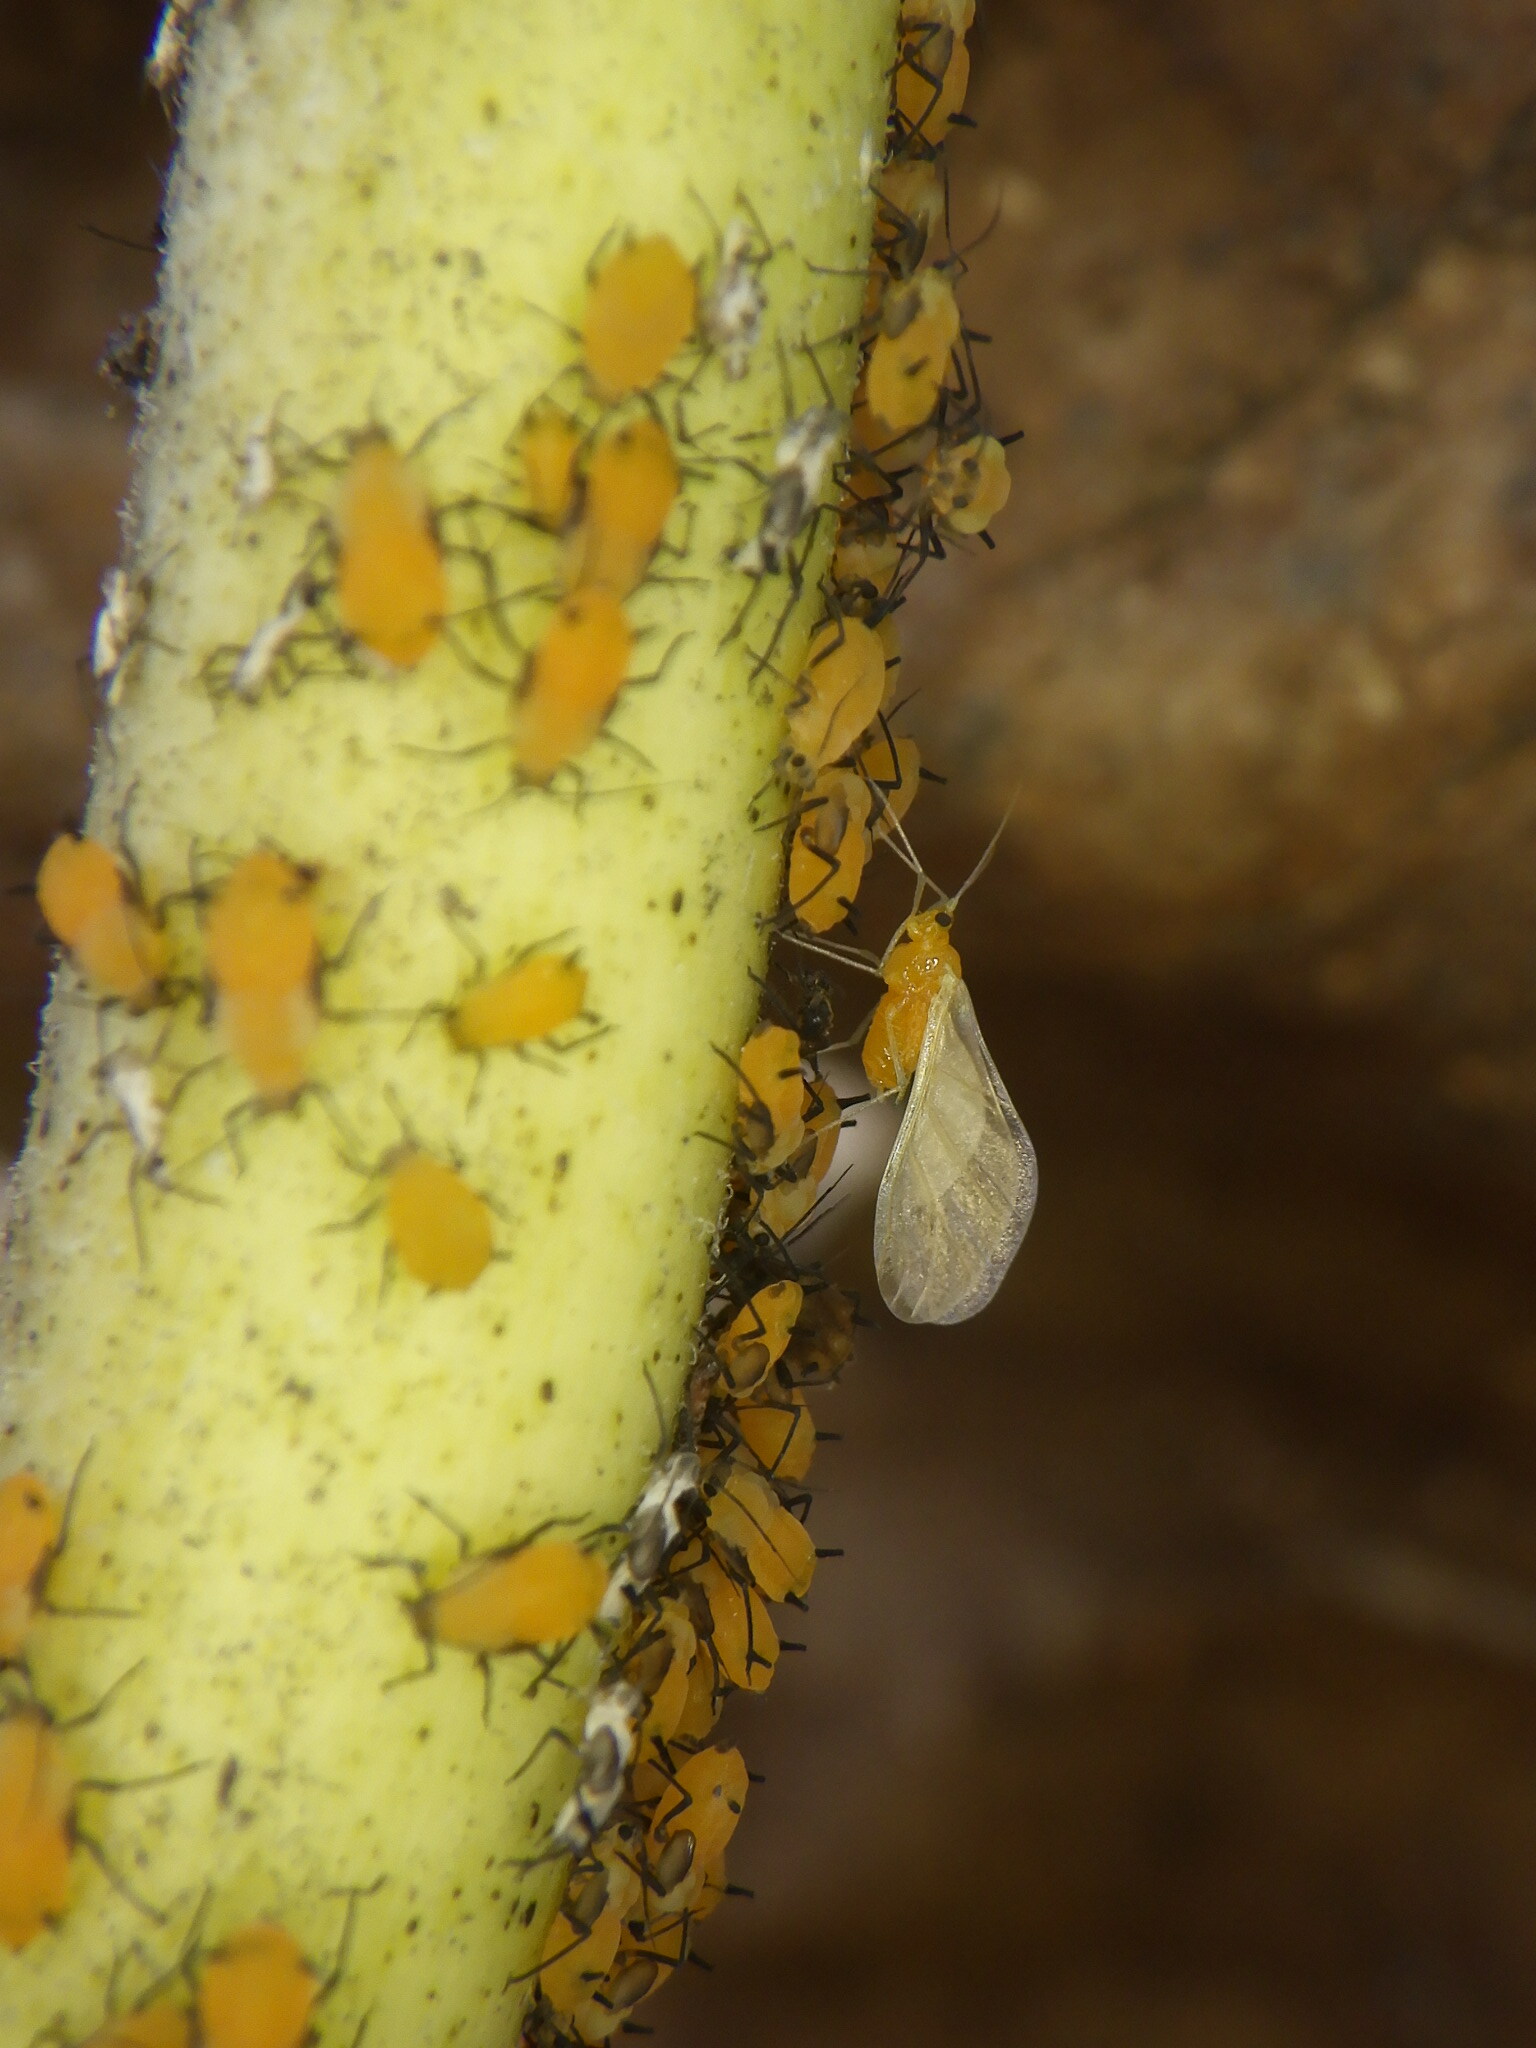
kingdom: Animalia
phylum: Arthropoda
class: Insecta
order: Hemiptera
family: Aphididae
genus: Aphis
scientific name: Aphis nerii
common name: Oleander aphid
